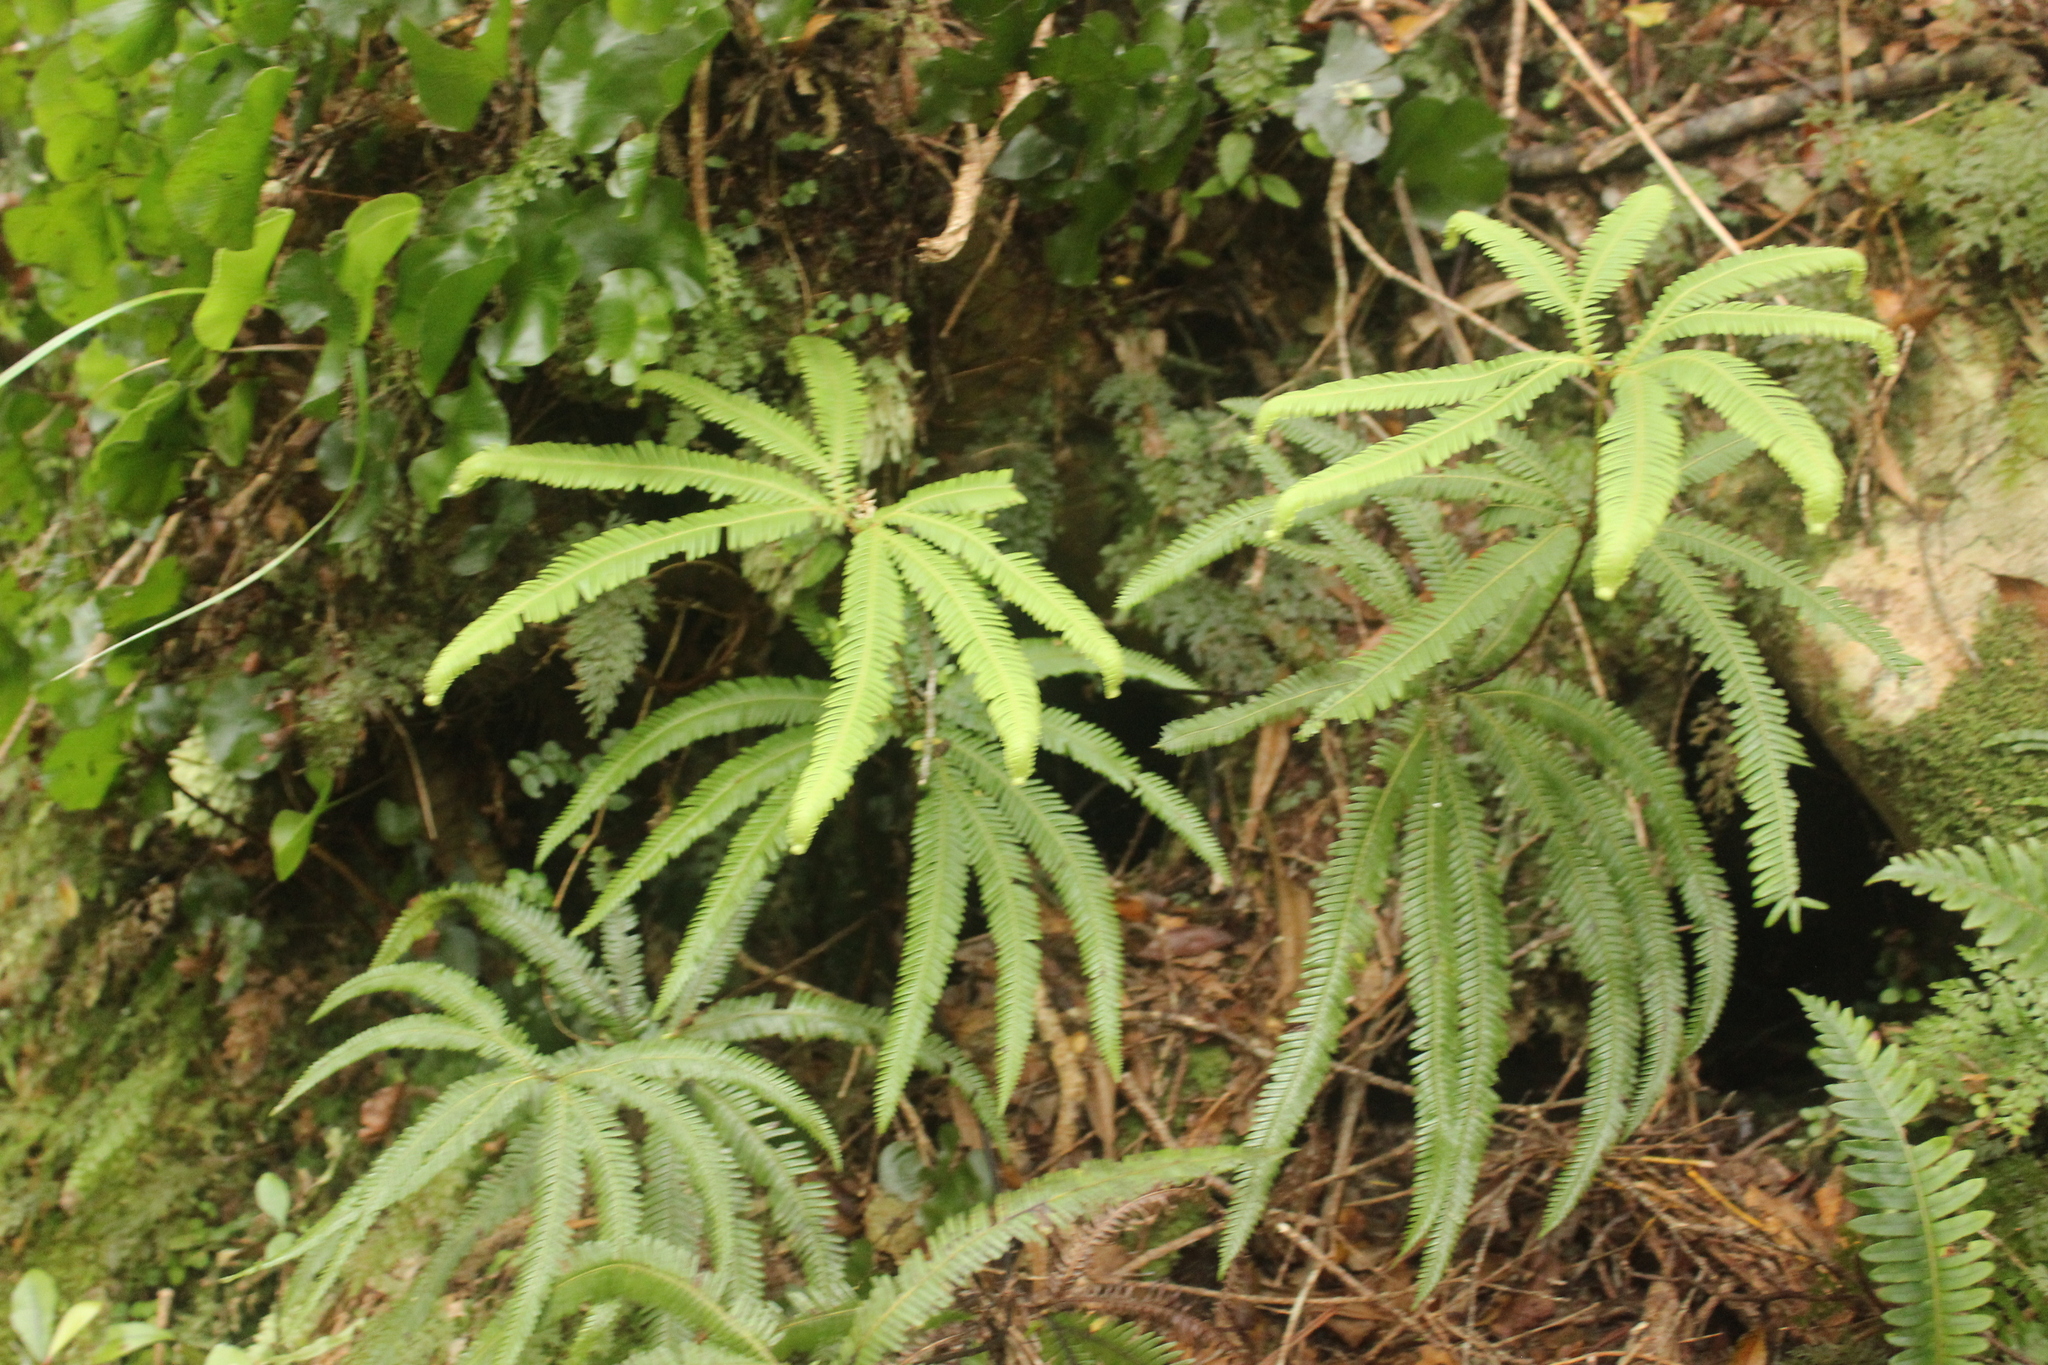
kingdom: Plantae
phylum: Tracheophyta
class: Polypodiopsida
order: Gleicheniales
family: Gleicheniaceae
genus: Sticherus
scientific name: Sticherus cunninghamii
